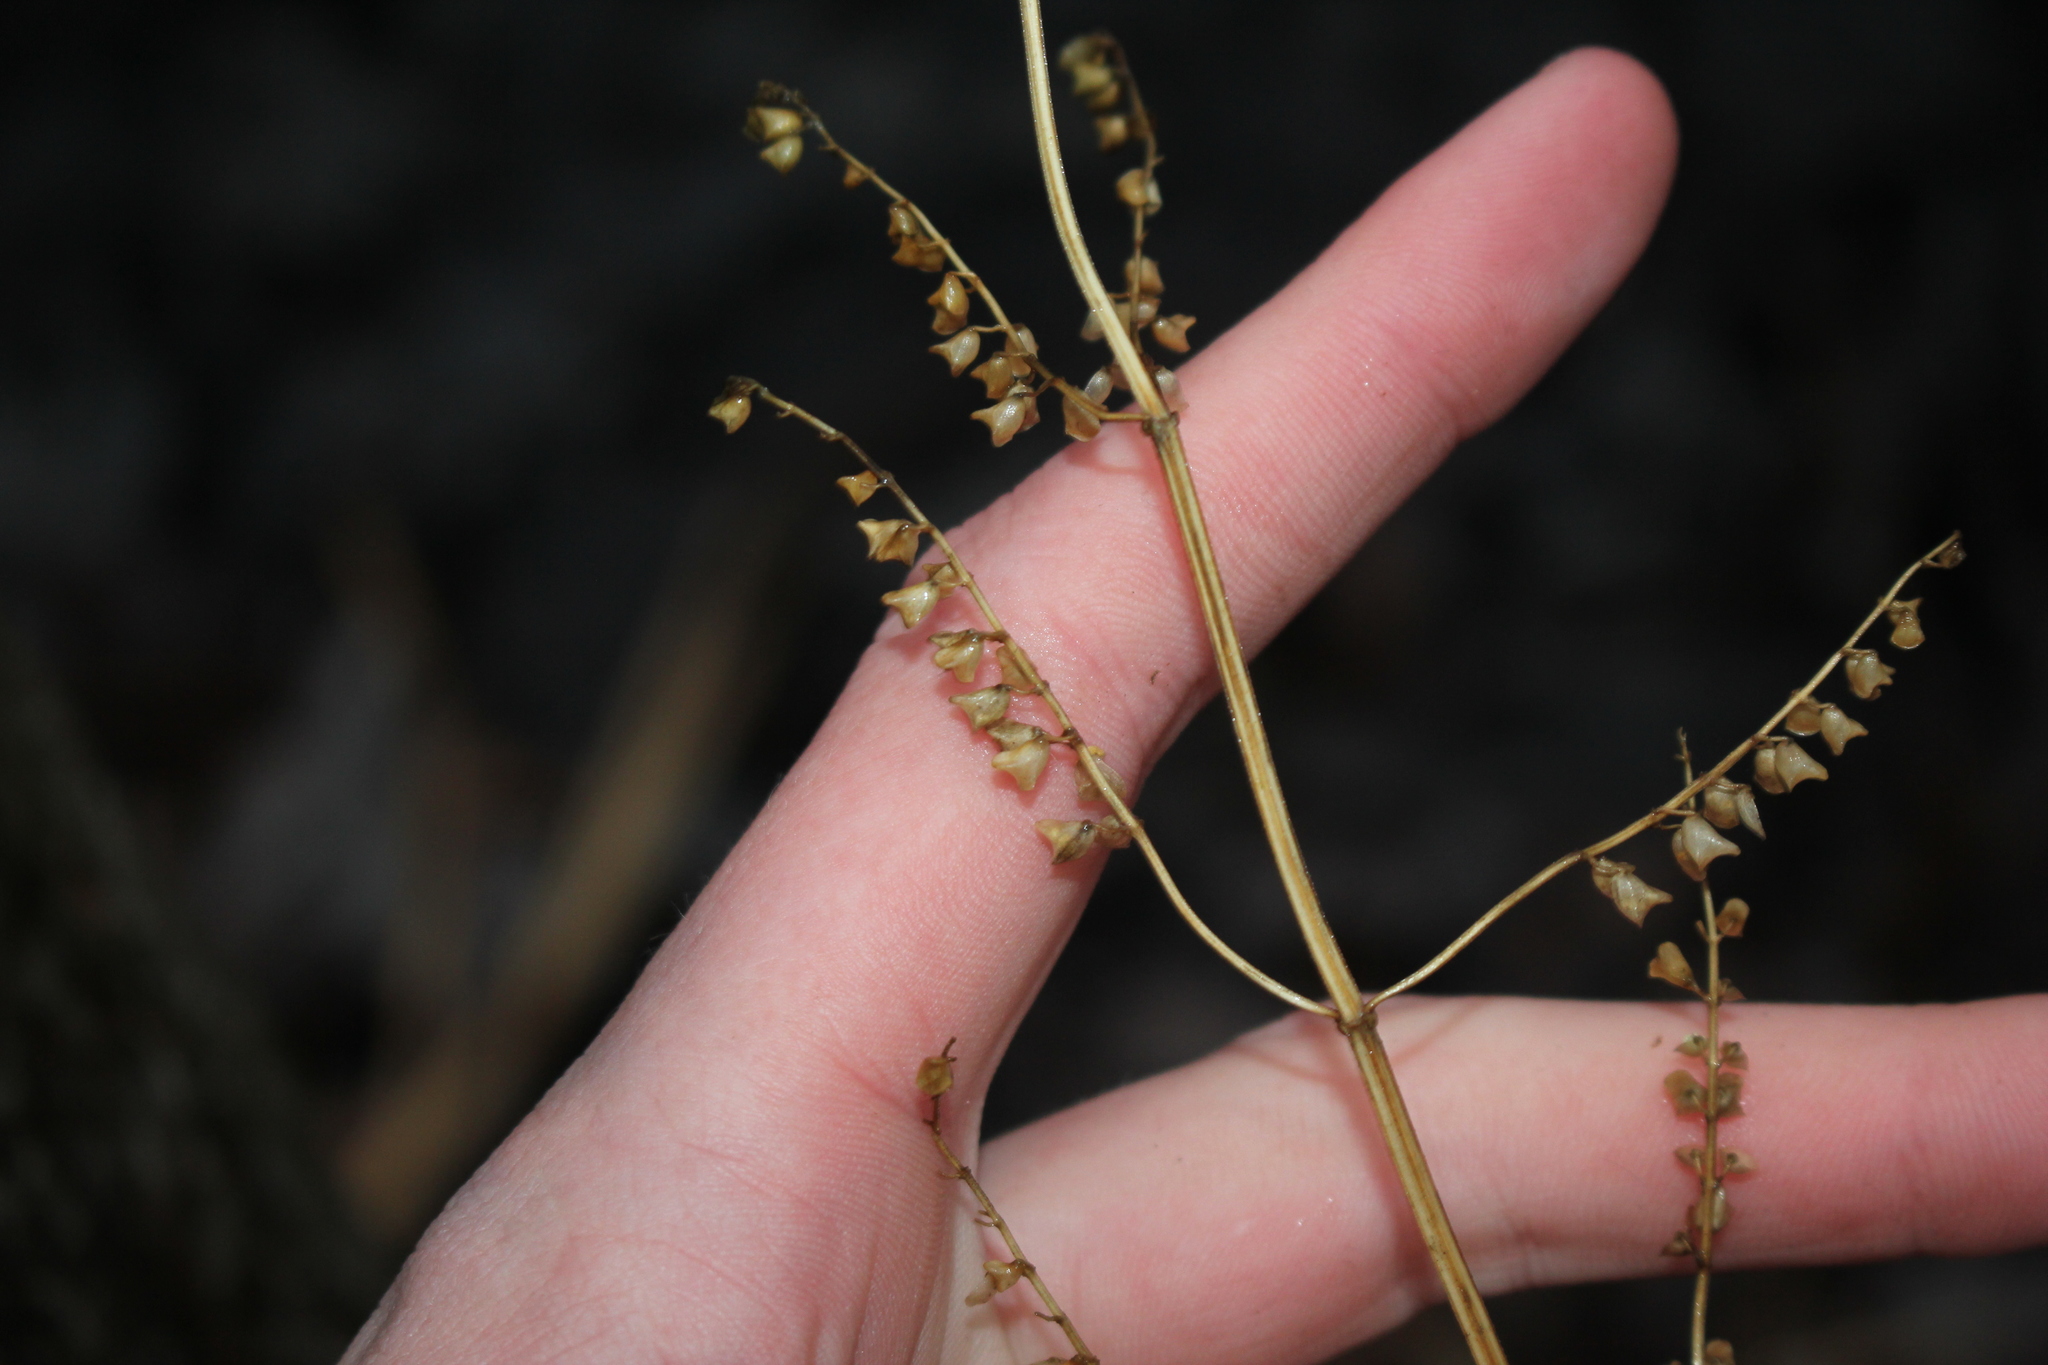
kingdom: Plantae
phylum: Tracheophyta
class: Magnoliopsida
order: Lamiales
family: Lamiaceae
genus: Scutellaria
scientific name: Scutellaria lateriflora
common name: Blue skullcap
